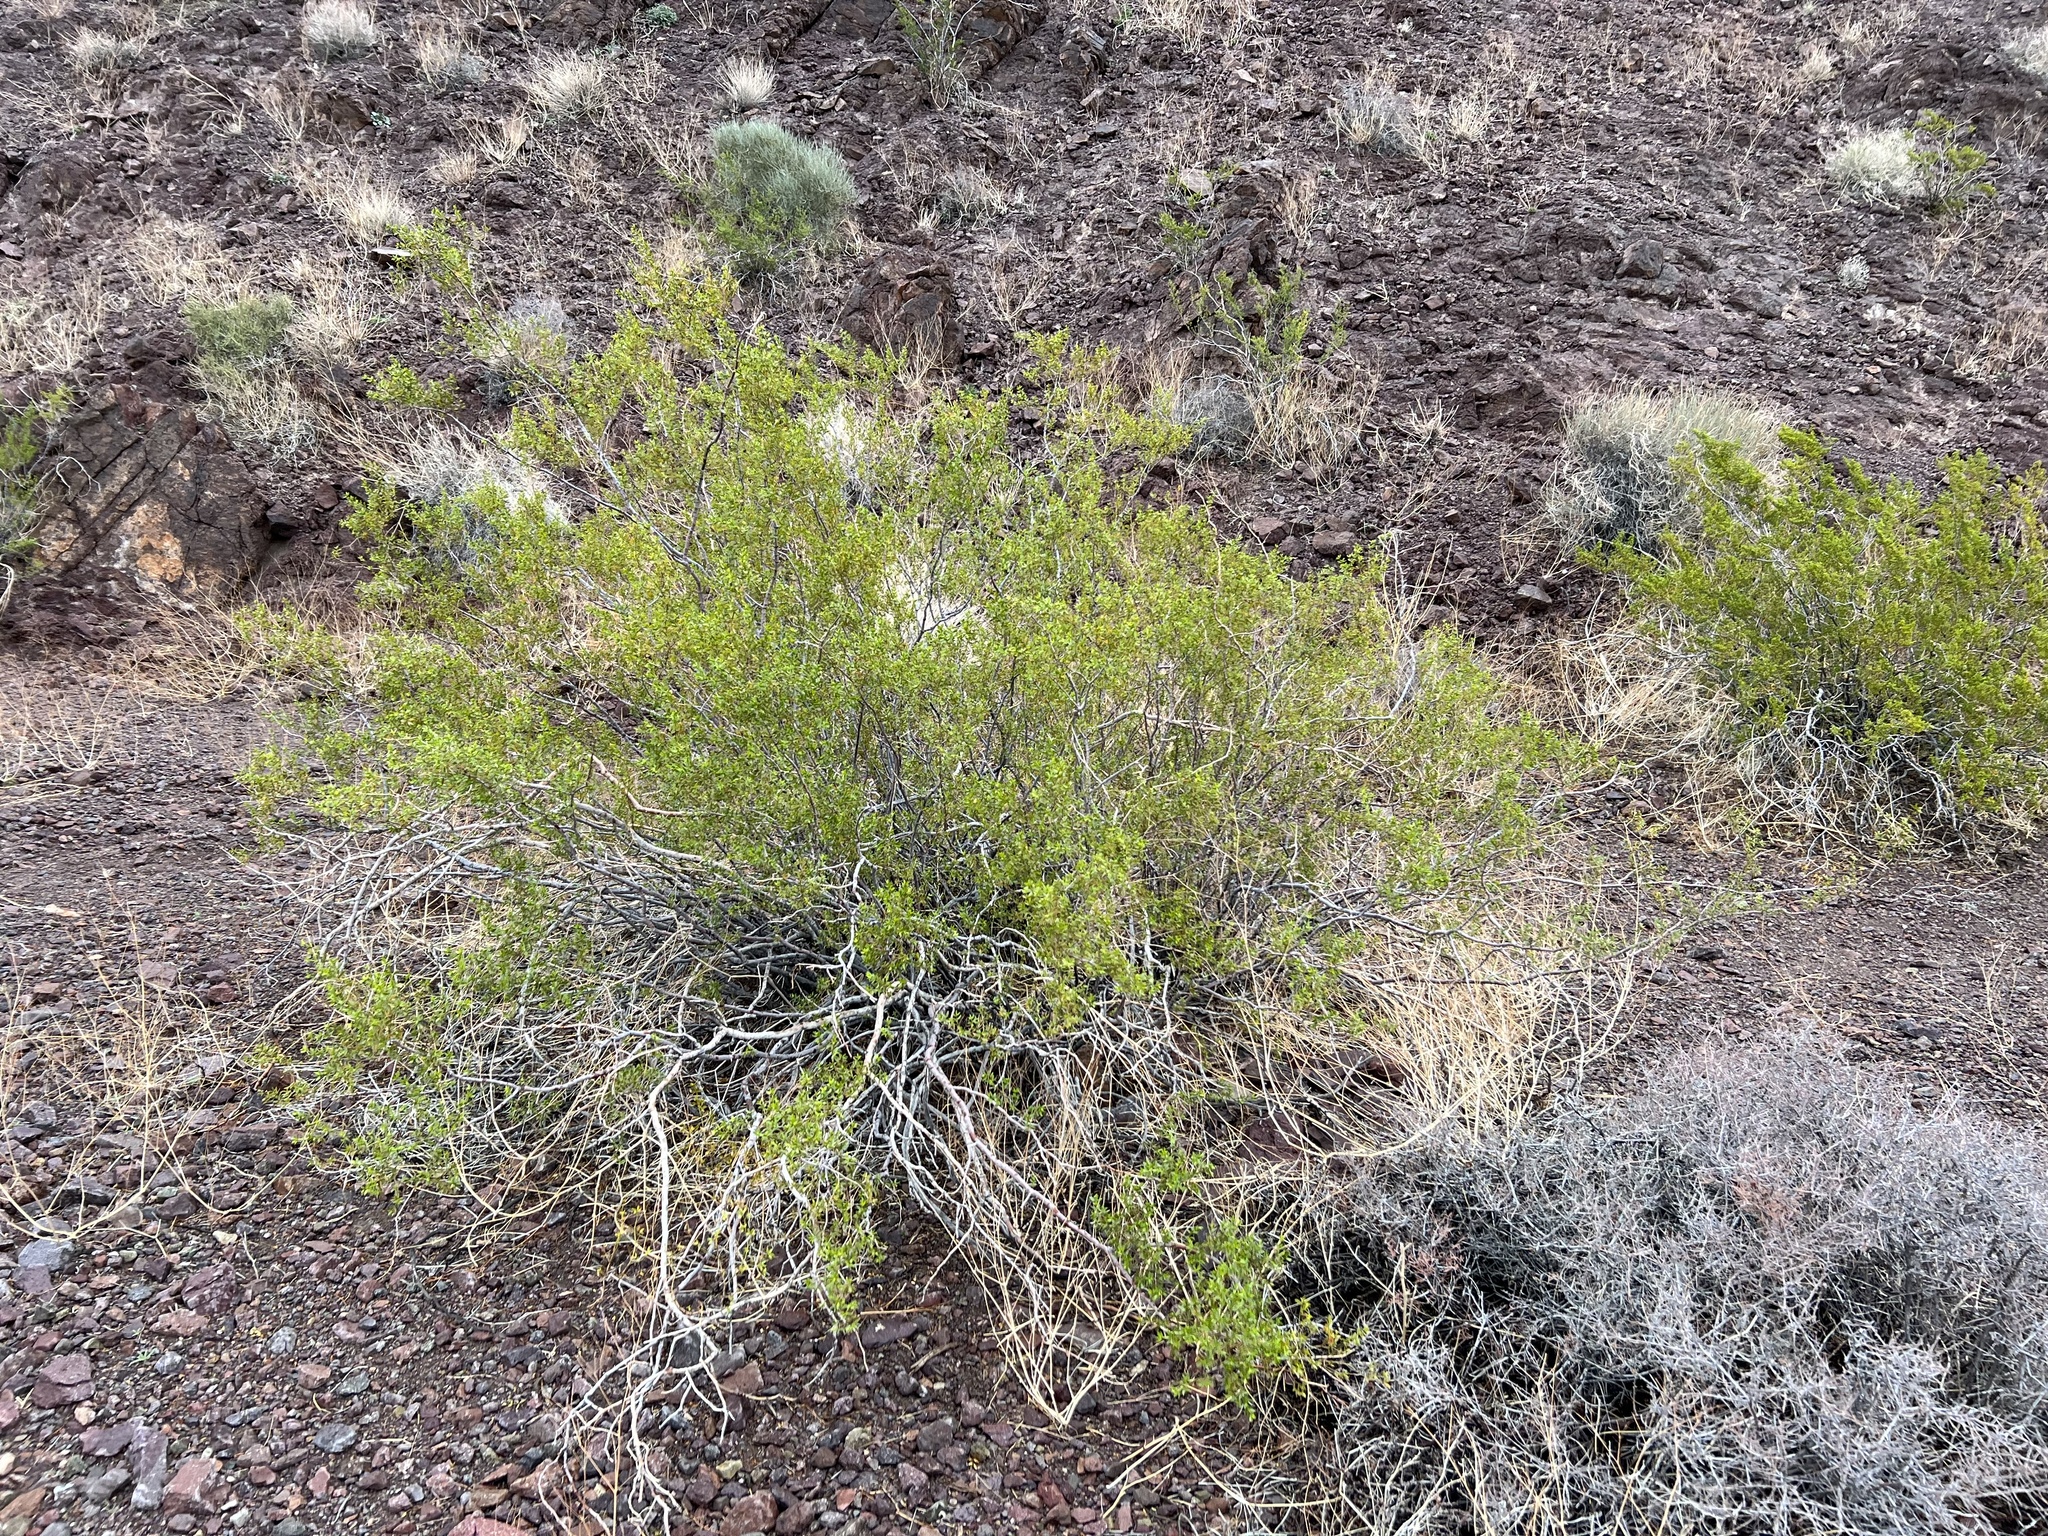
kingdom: Plantae
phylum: Tracheophyta
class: Magnoliopsida
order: Zygophyllales
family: Zygophyllaceae
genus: Larrea
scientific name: Larrea tridentata
